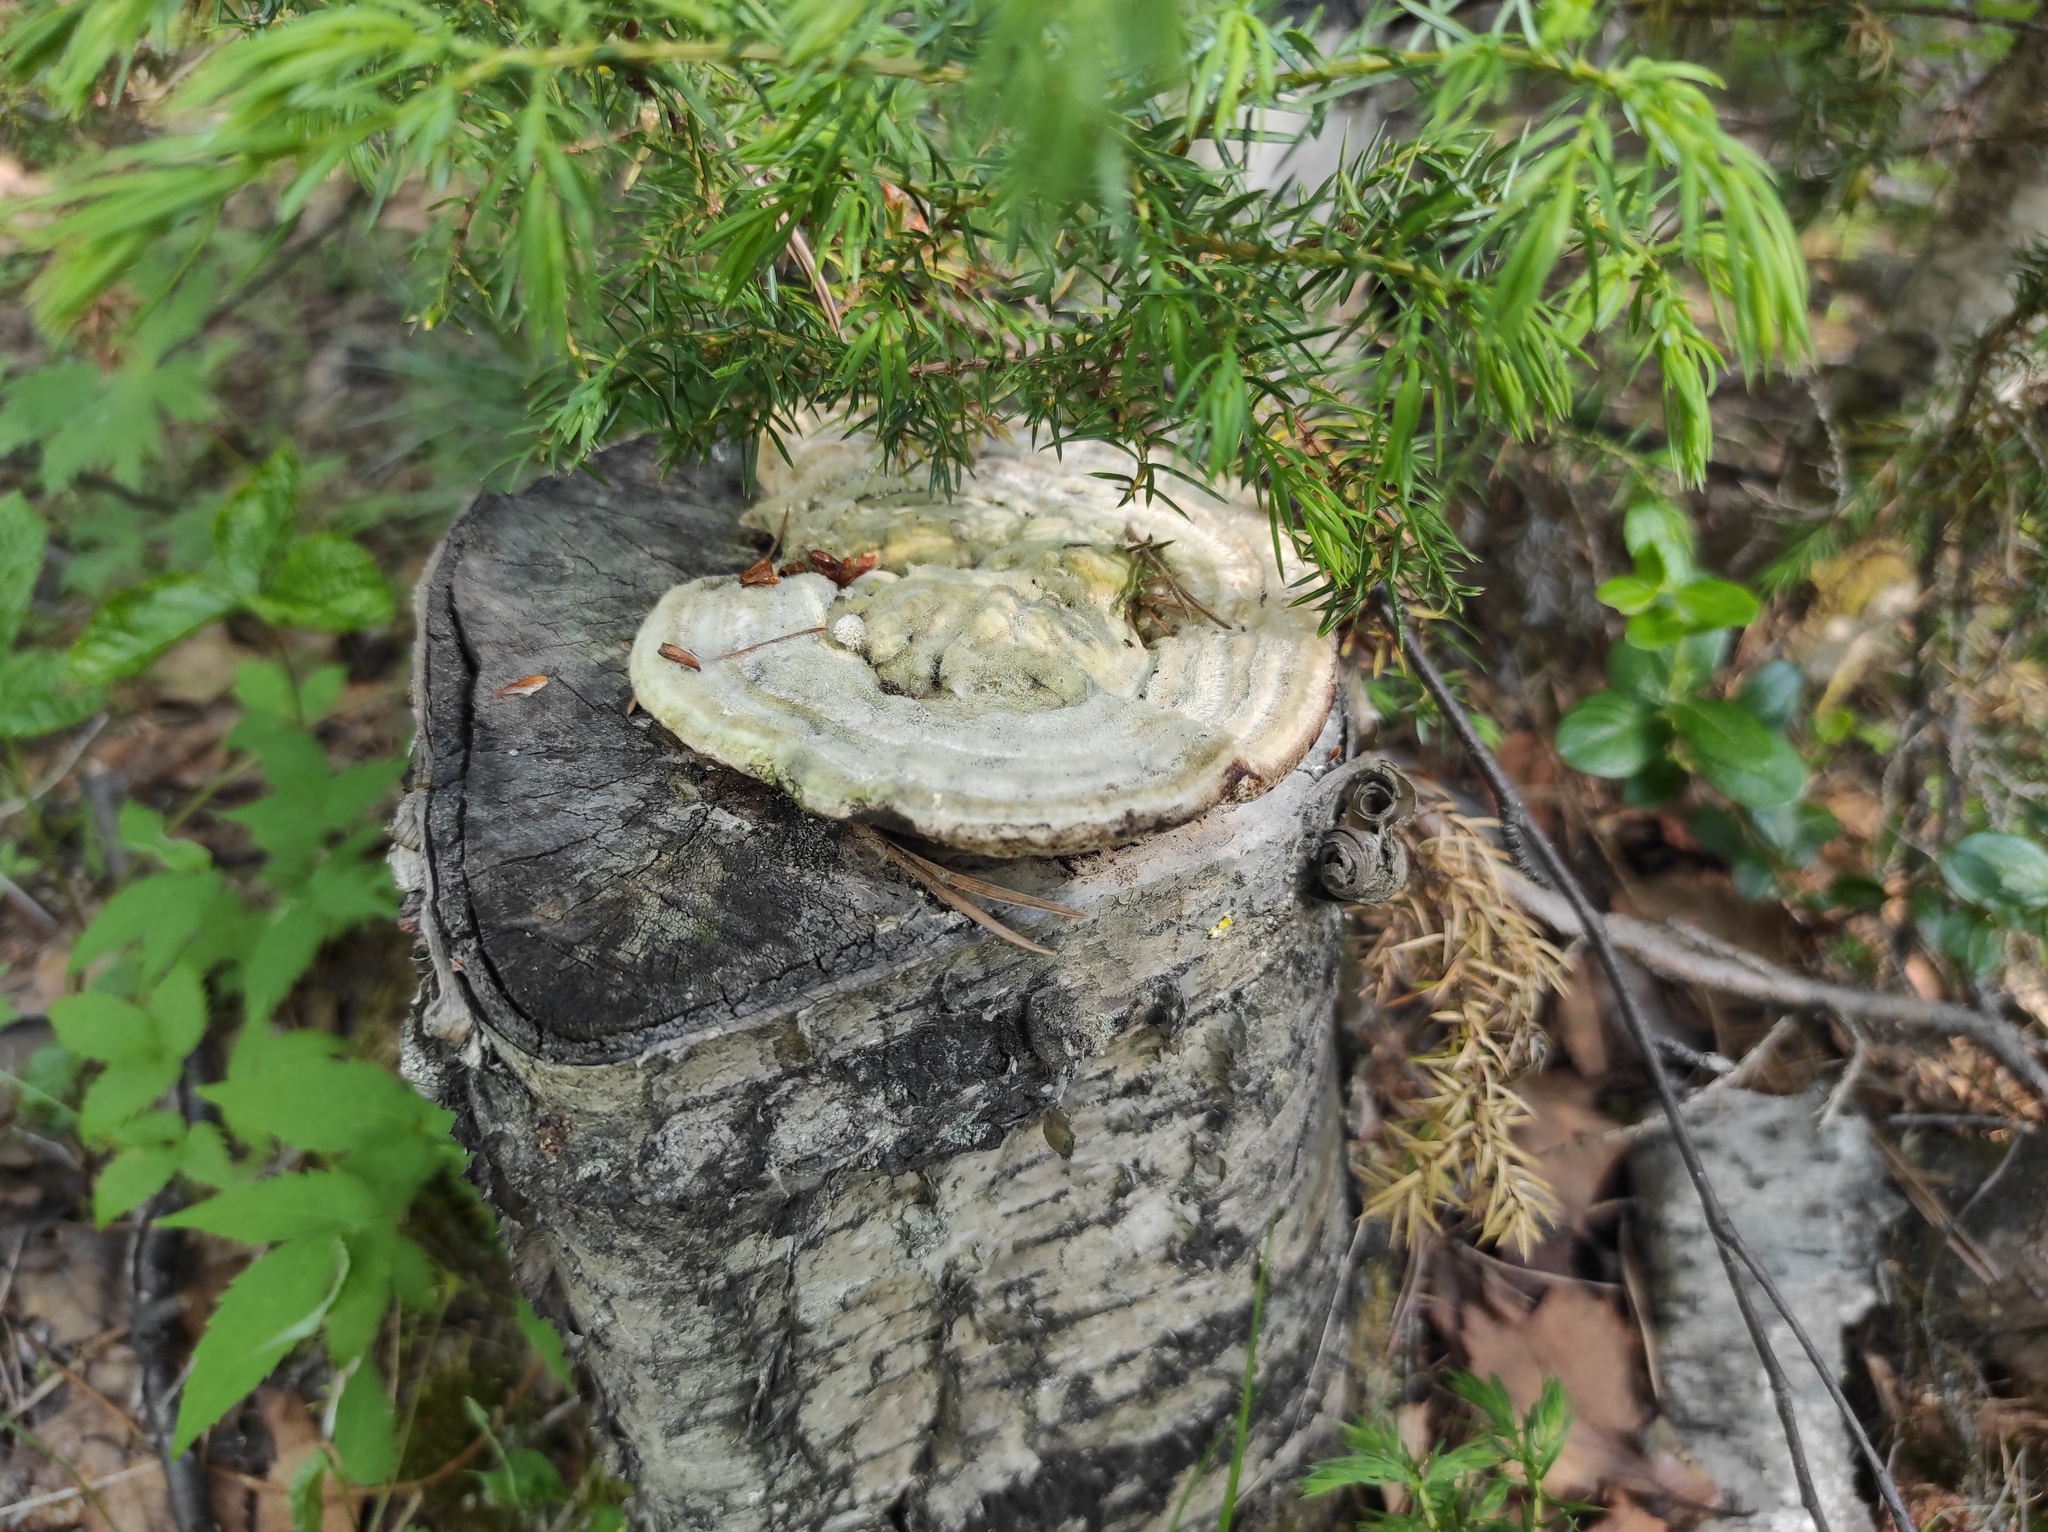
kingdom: Plantae
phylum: Tracheophyta
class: Pinopsida
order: Pinales
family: Cupressaceae
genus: Juniperus
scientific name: Juniperus communis
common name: Common juniper
